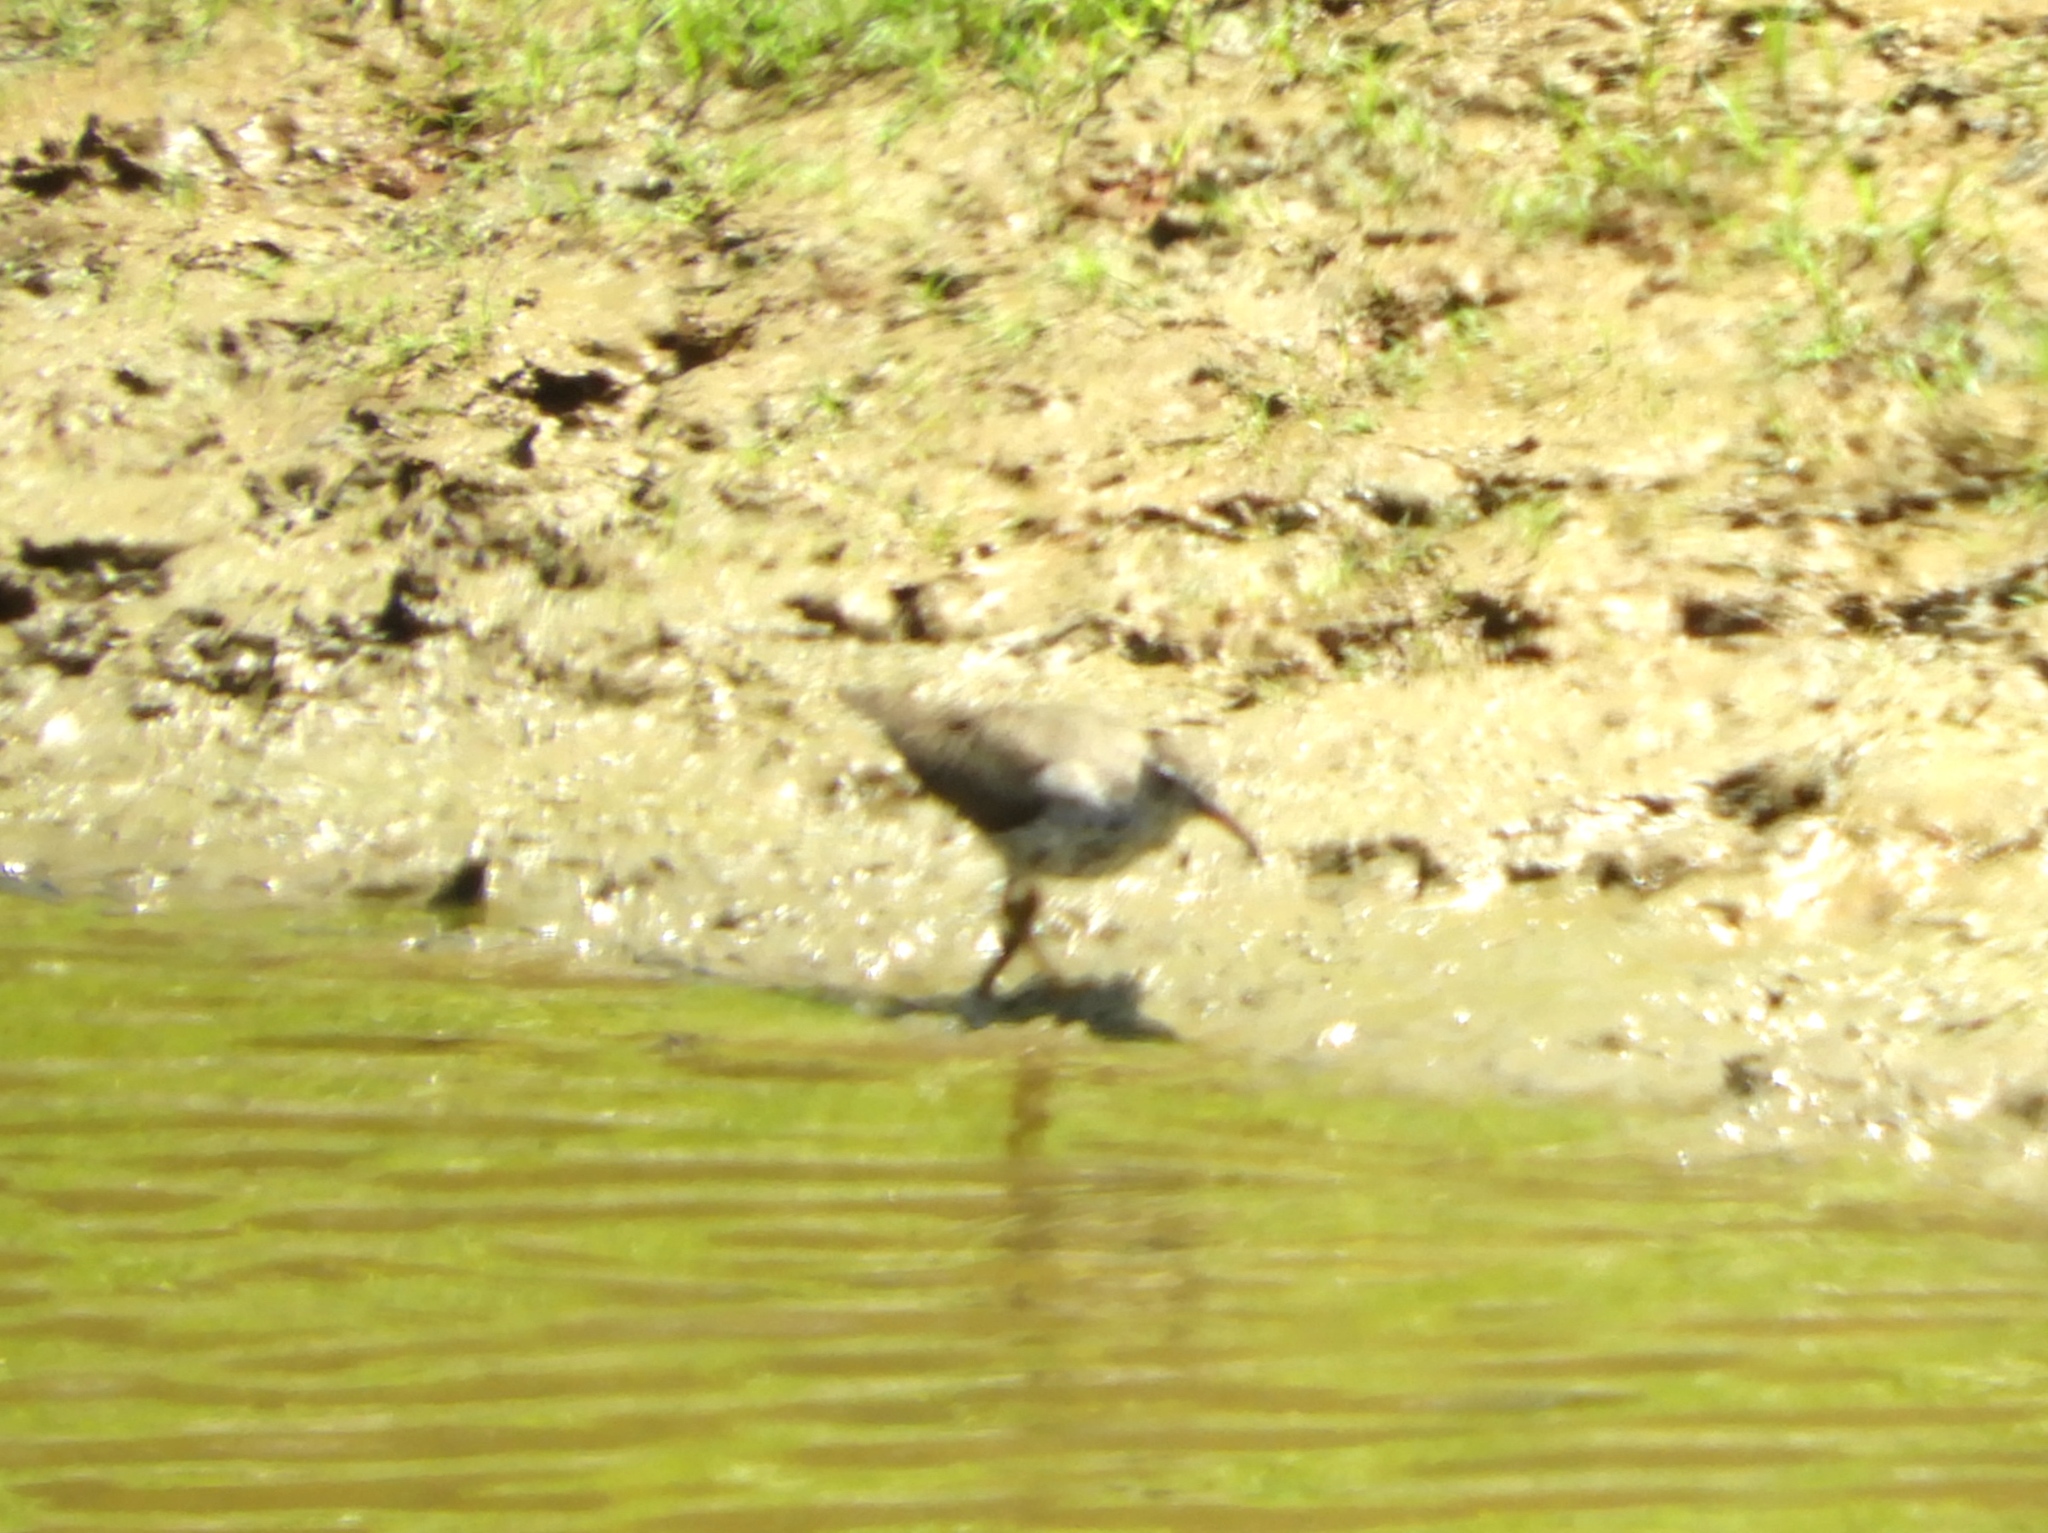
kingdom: Animalia
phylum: Chordata
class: Aves
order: Charadriiformes
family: Scolopacidae
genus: Actitis
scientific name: Actitis macularius
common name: Spotted sandpiper
